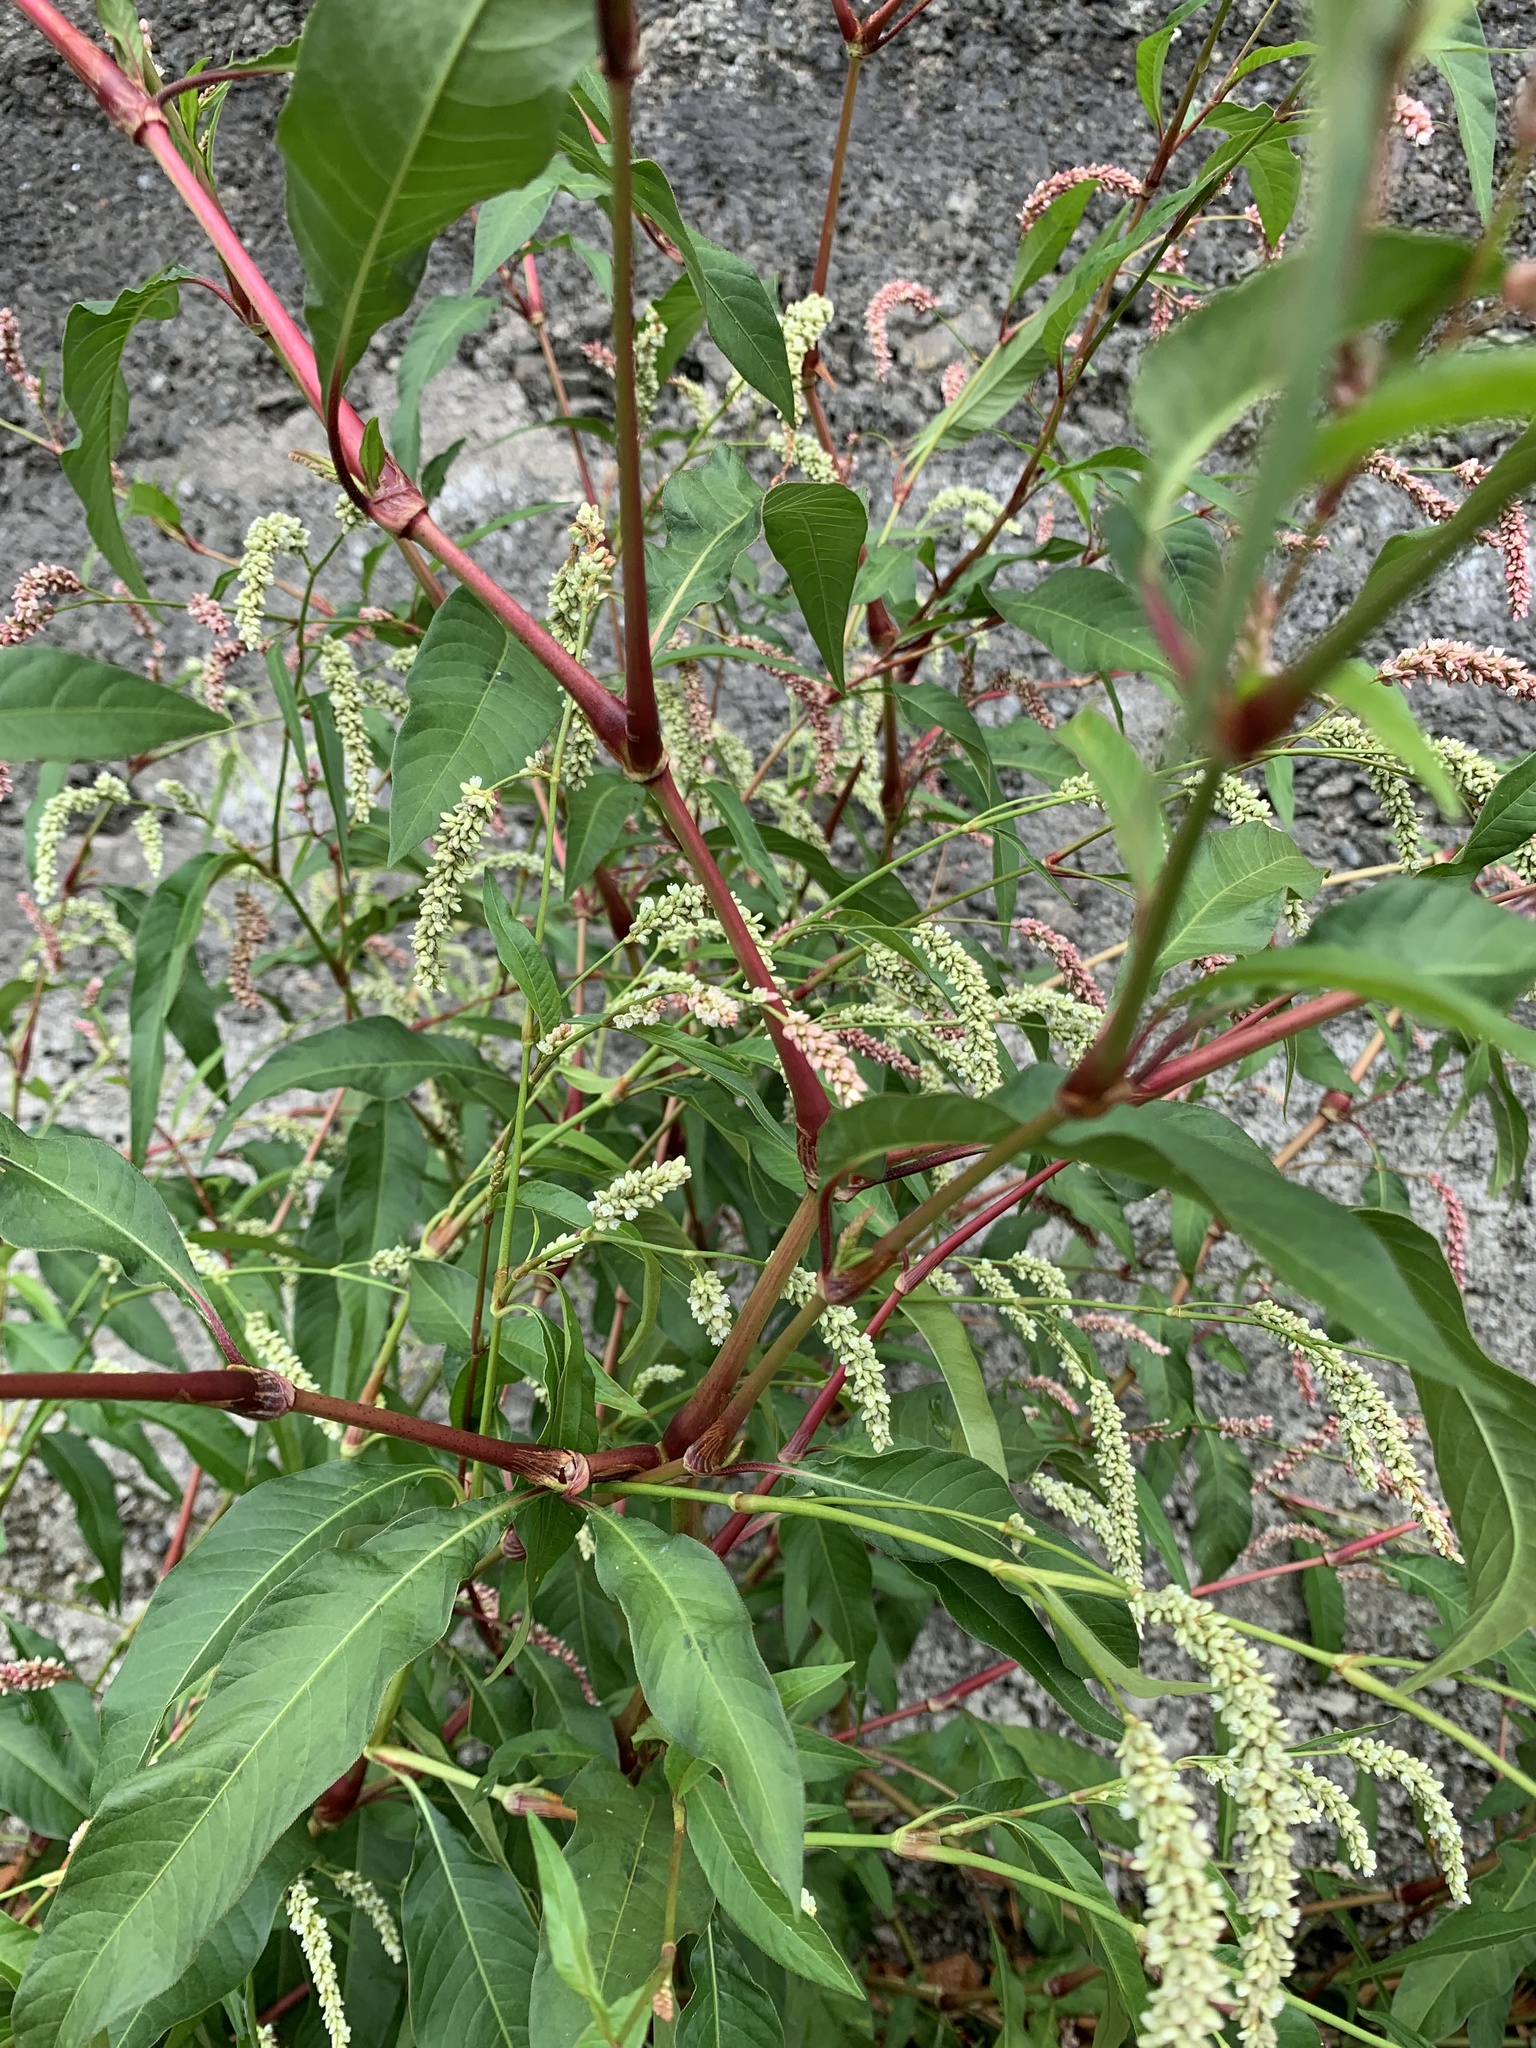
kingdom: Plantae
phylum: Tracheophyta
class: Magnoliopsida
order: Caryophyllales
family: Polygonaceae
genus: Persicaria
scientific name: Persicaria lapathifolia
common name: Curlytop knotweed
